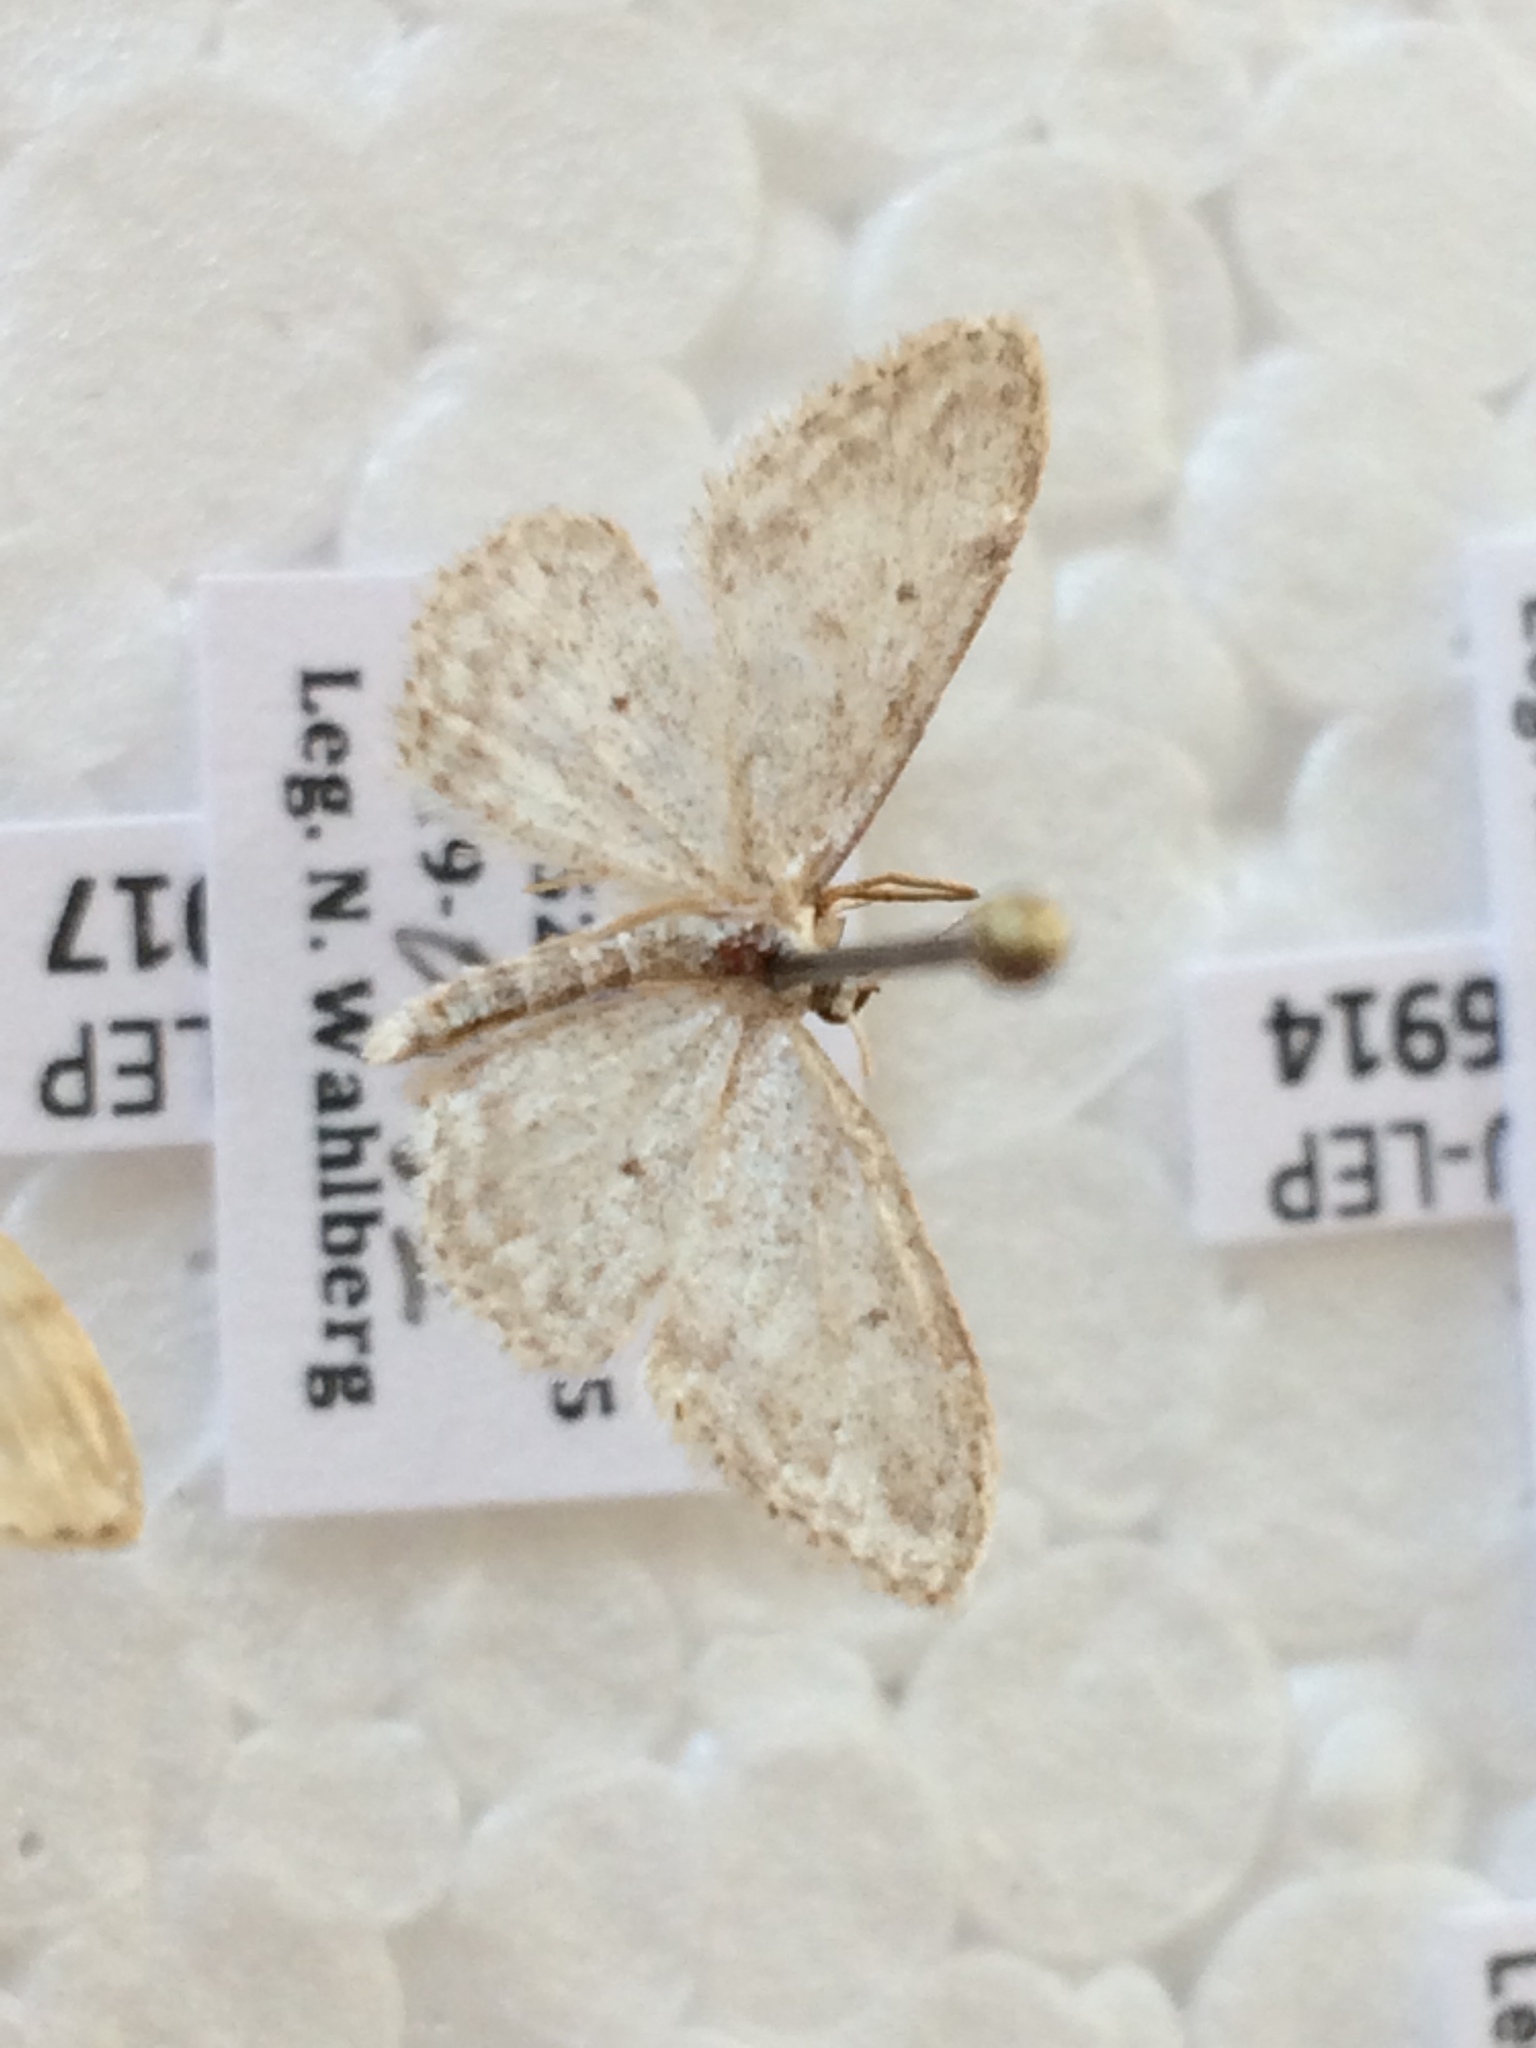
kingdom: Animalia
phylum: Arthropoda
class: Insecta
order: Lepidoptera
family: Geometridae
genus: Idaea
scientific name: Idaea seriata
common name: Small dusty wave
